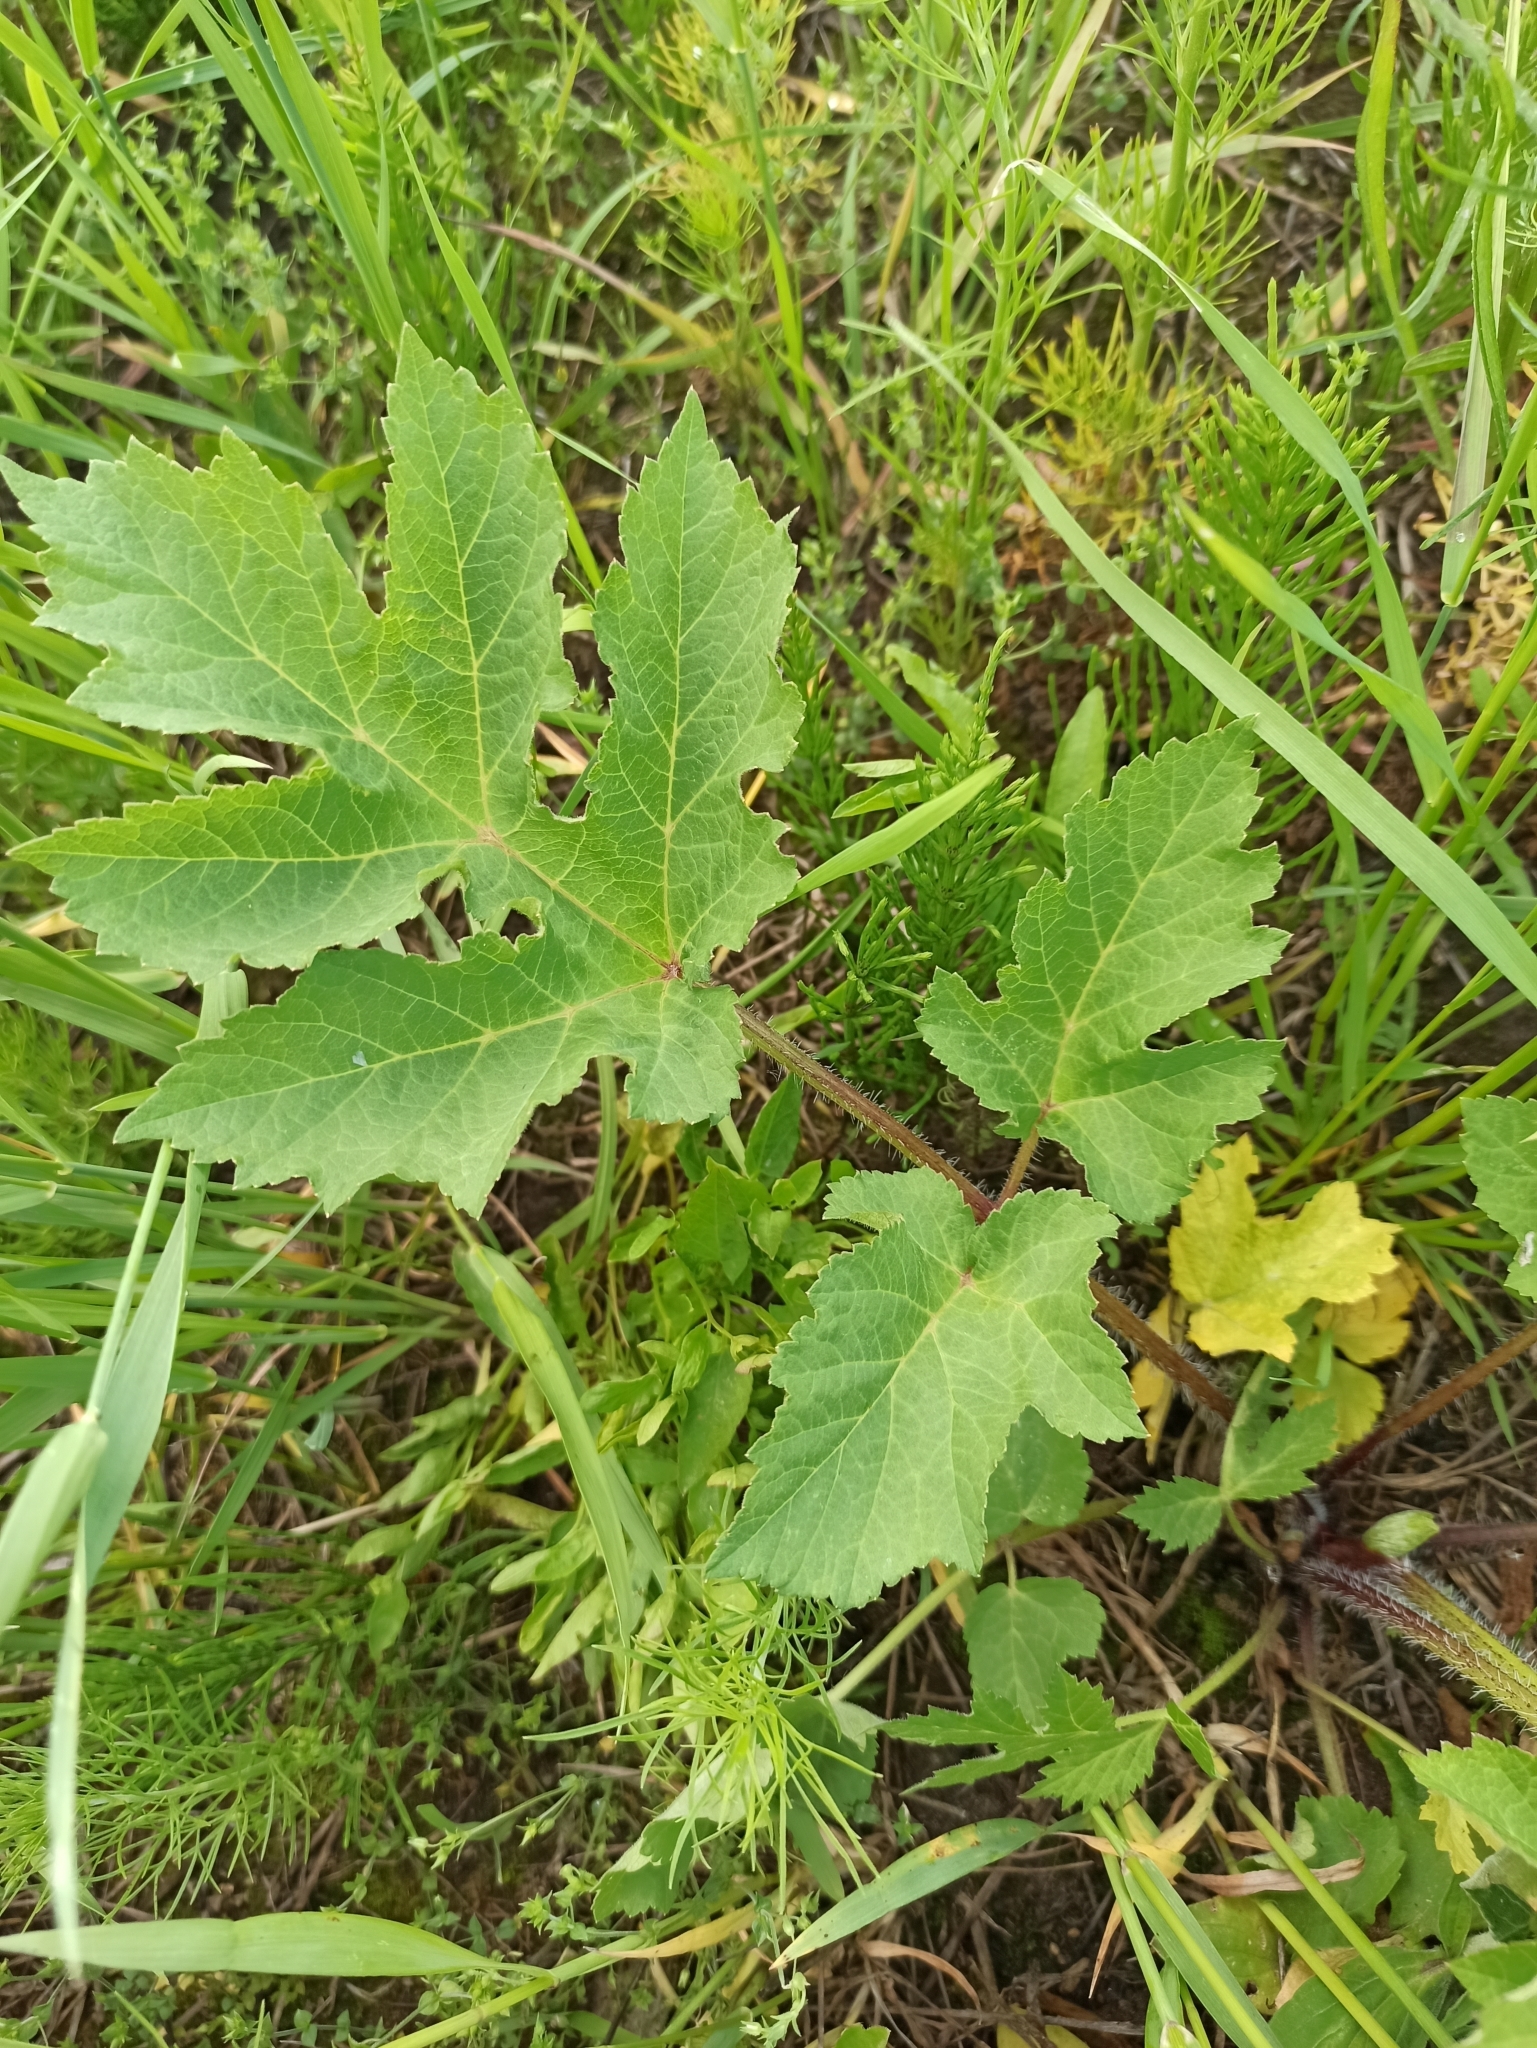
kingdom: Plantae
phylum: Tracheophyta
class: Magnoliopsida
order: Apiales
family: Apiaceae
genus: Heracleum
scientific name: Heracleum sphondylium
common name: Hogweed
